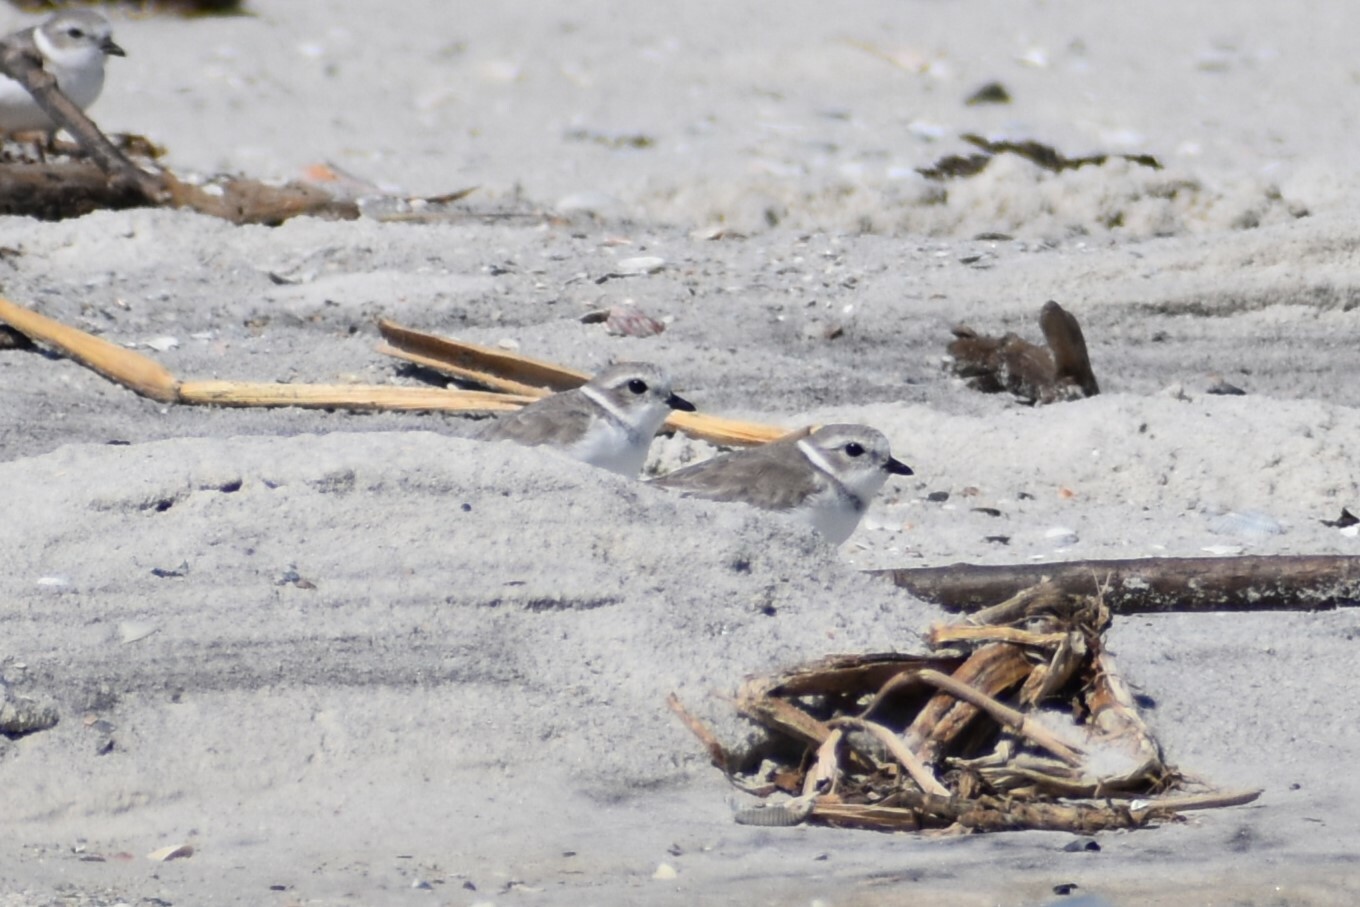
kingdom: Animalia
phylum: Chordata
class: Aves
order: Charadriiformes
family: Charadriidae
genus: Charadrius
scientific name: Charadrius melodus
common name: Piping plover
